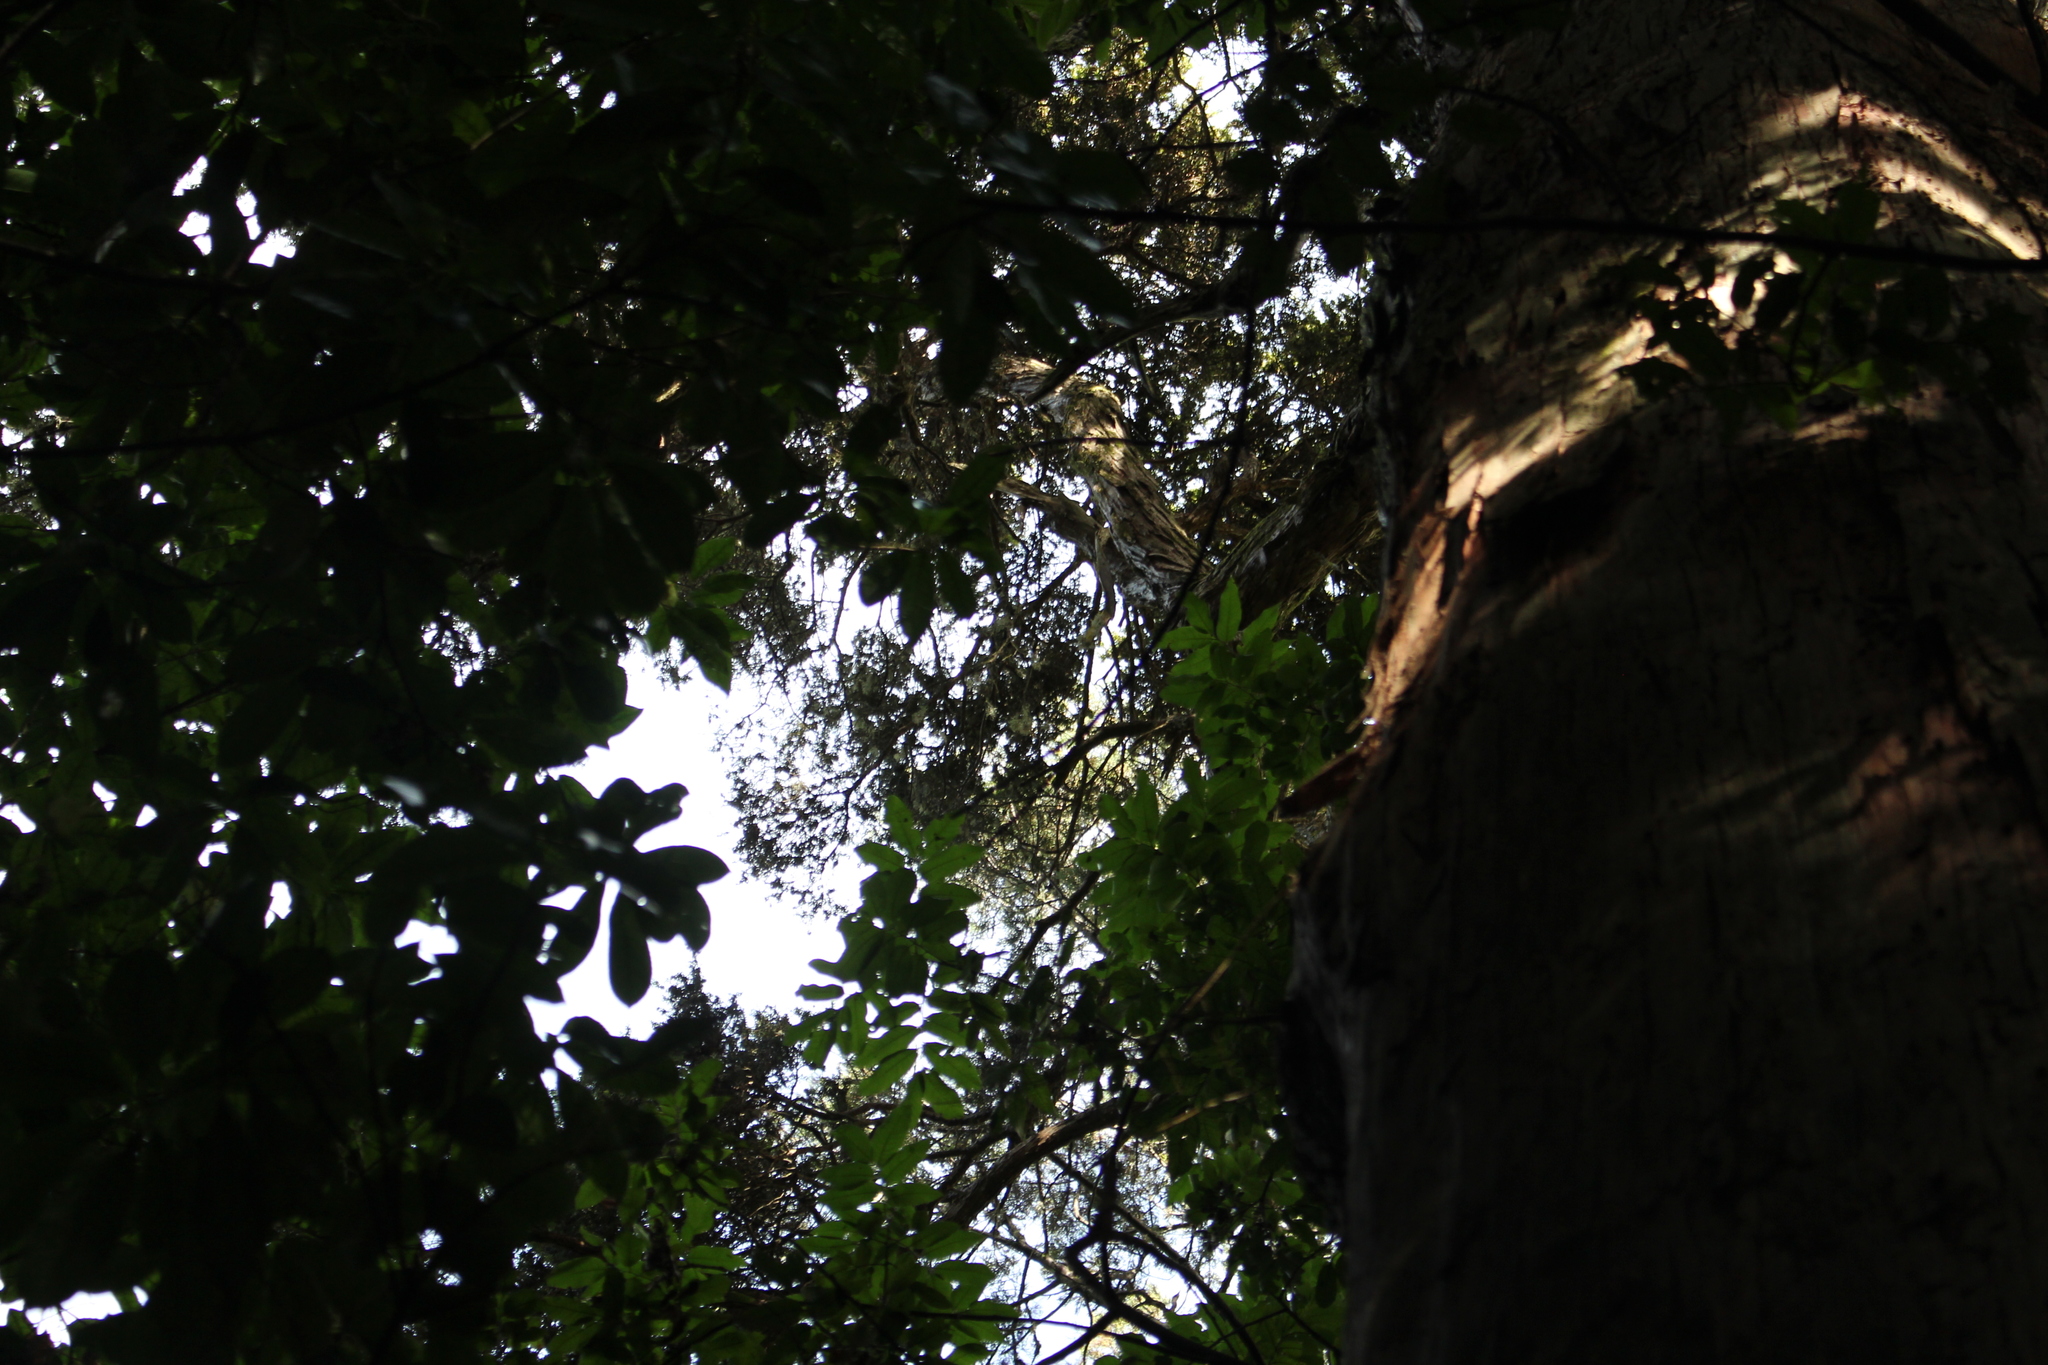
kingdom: Plantae
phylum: Tracheophyta
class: Pinopsida
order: Pinales
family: Podocarpaceae
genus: Podocarpus
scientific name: Podocarpus totara
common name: Totara
